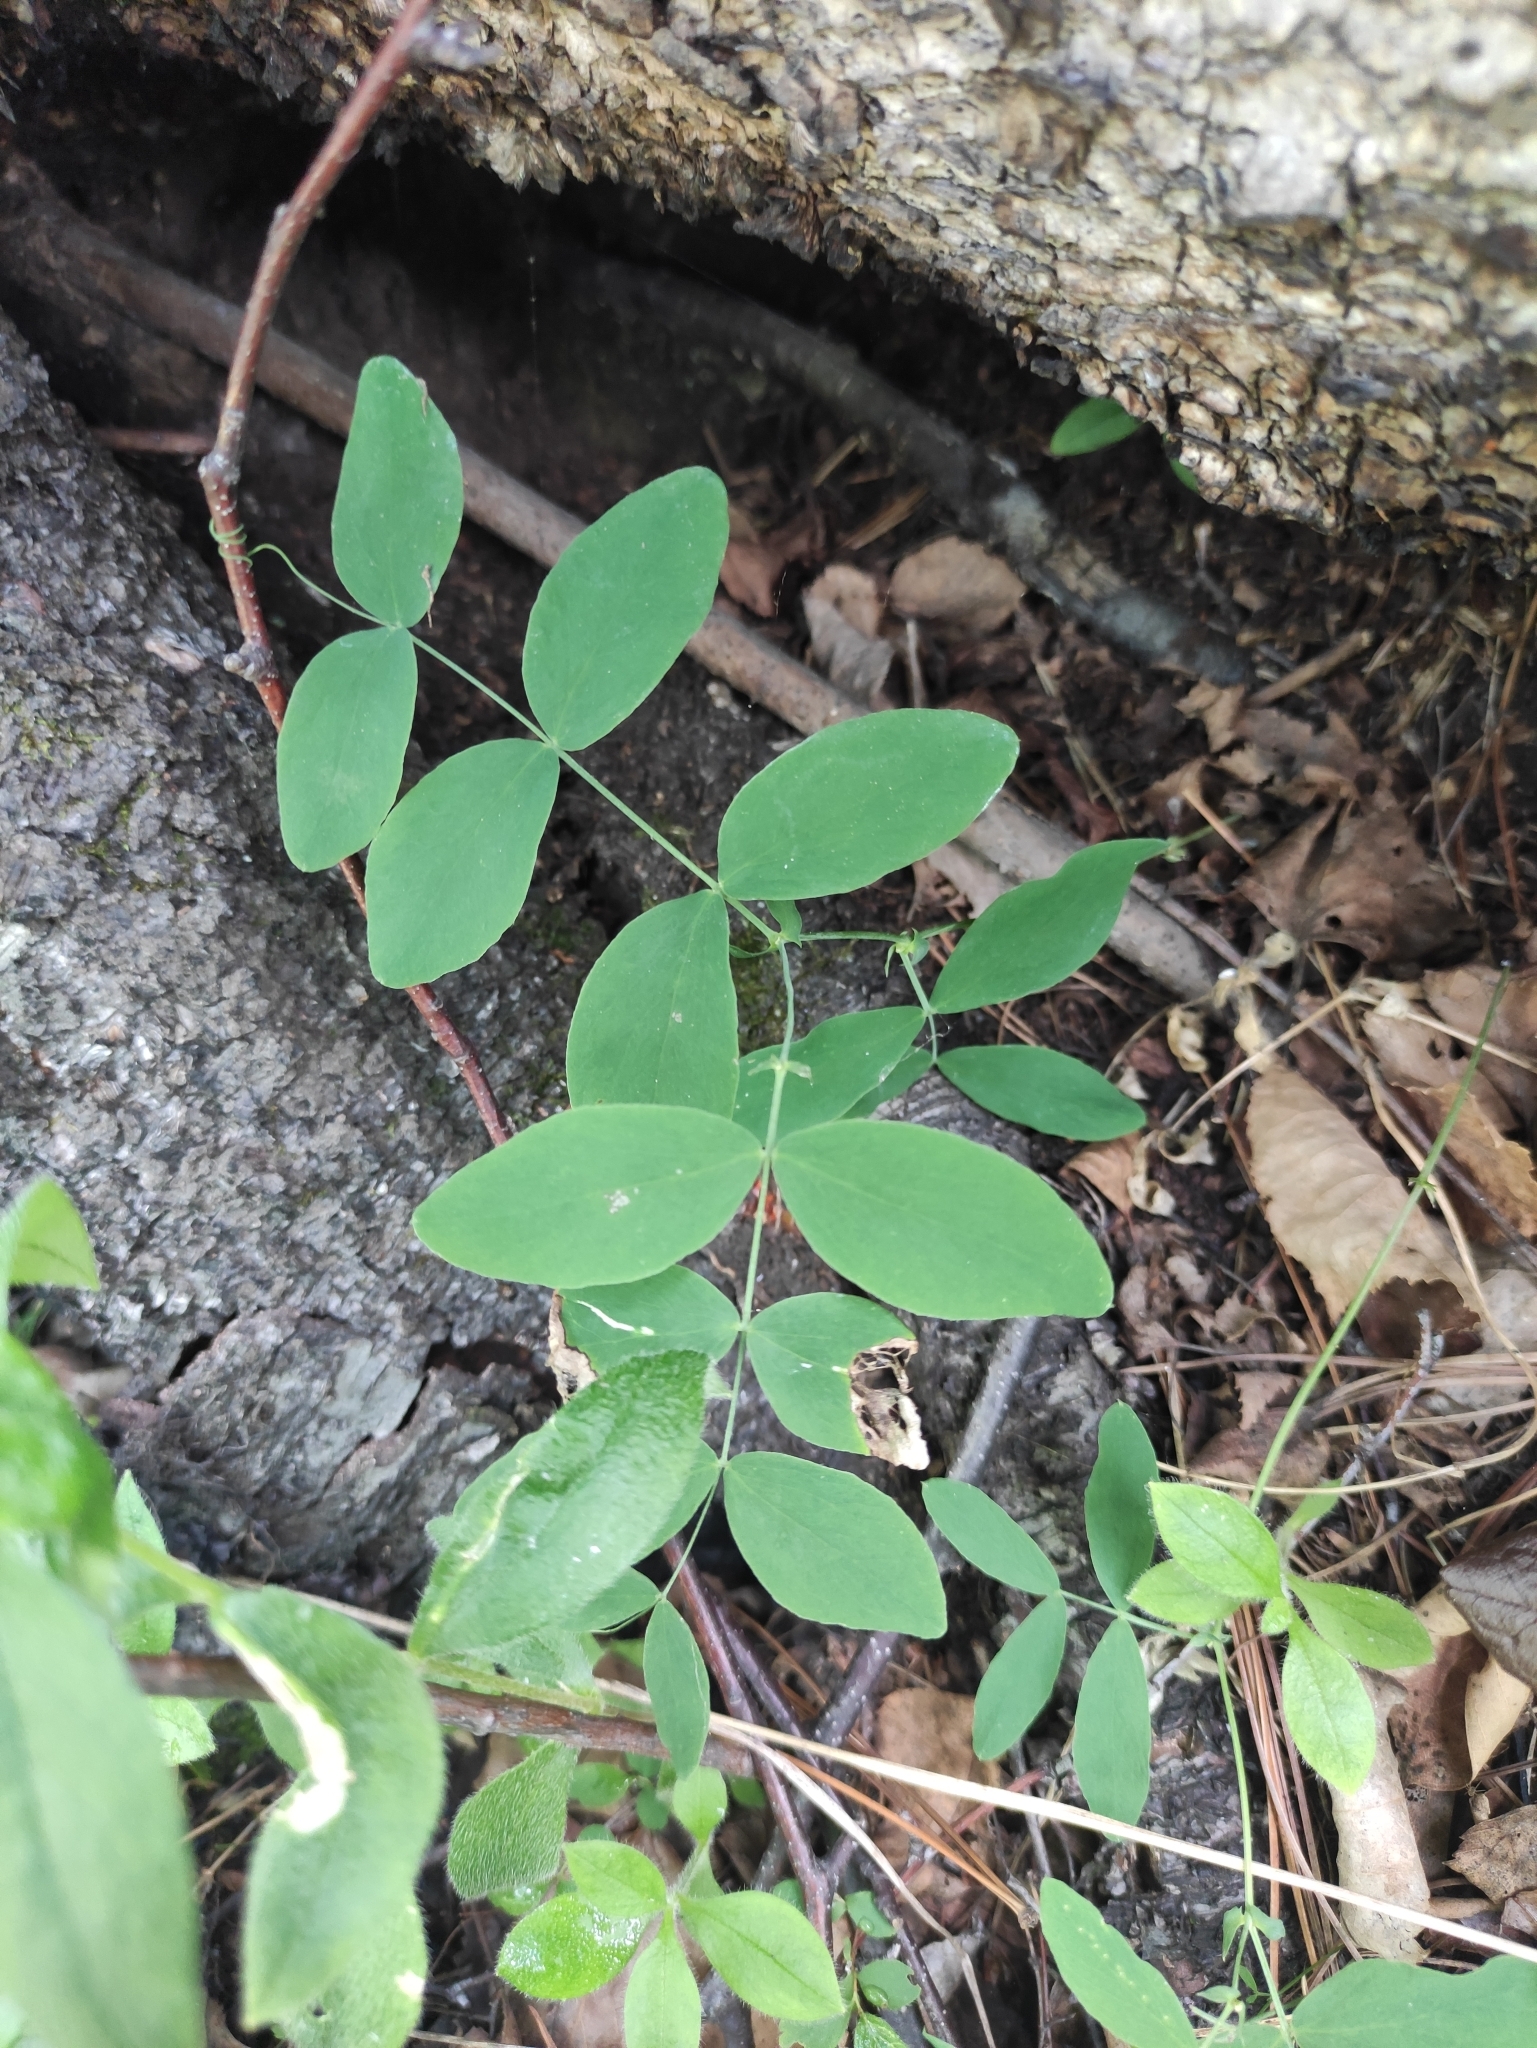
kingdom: Plantae
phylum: Tracheophyta
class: Magnoliopsida
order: Fabales
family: Fabaceae
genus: Lathyrus
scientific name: Lathyrus humilis
